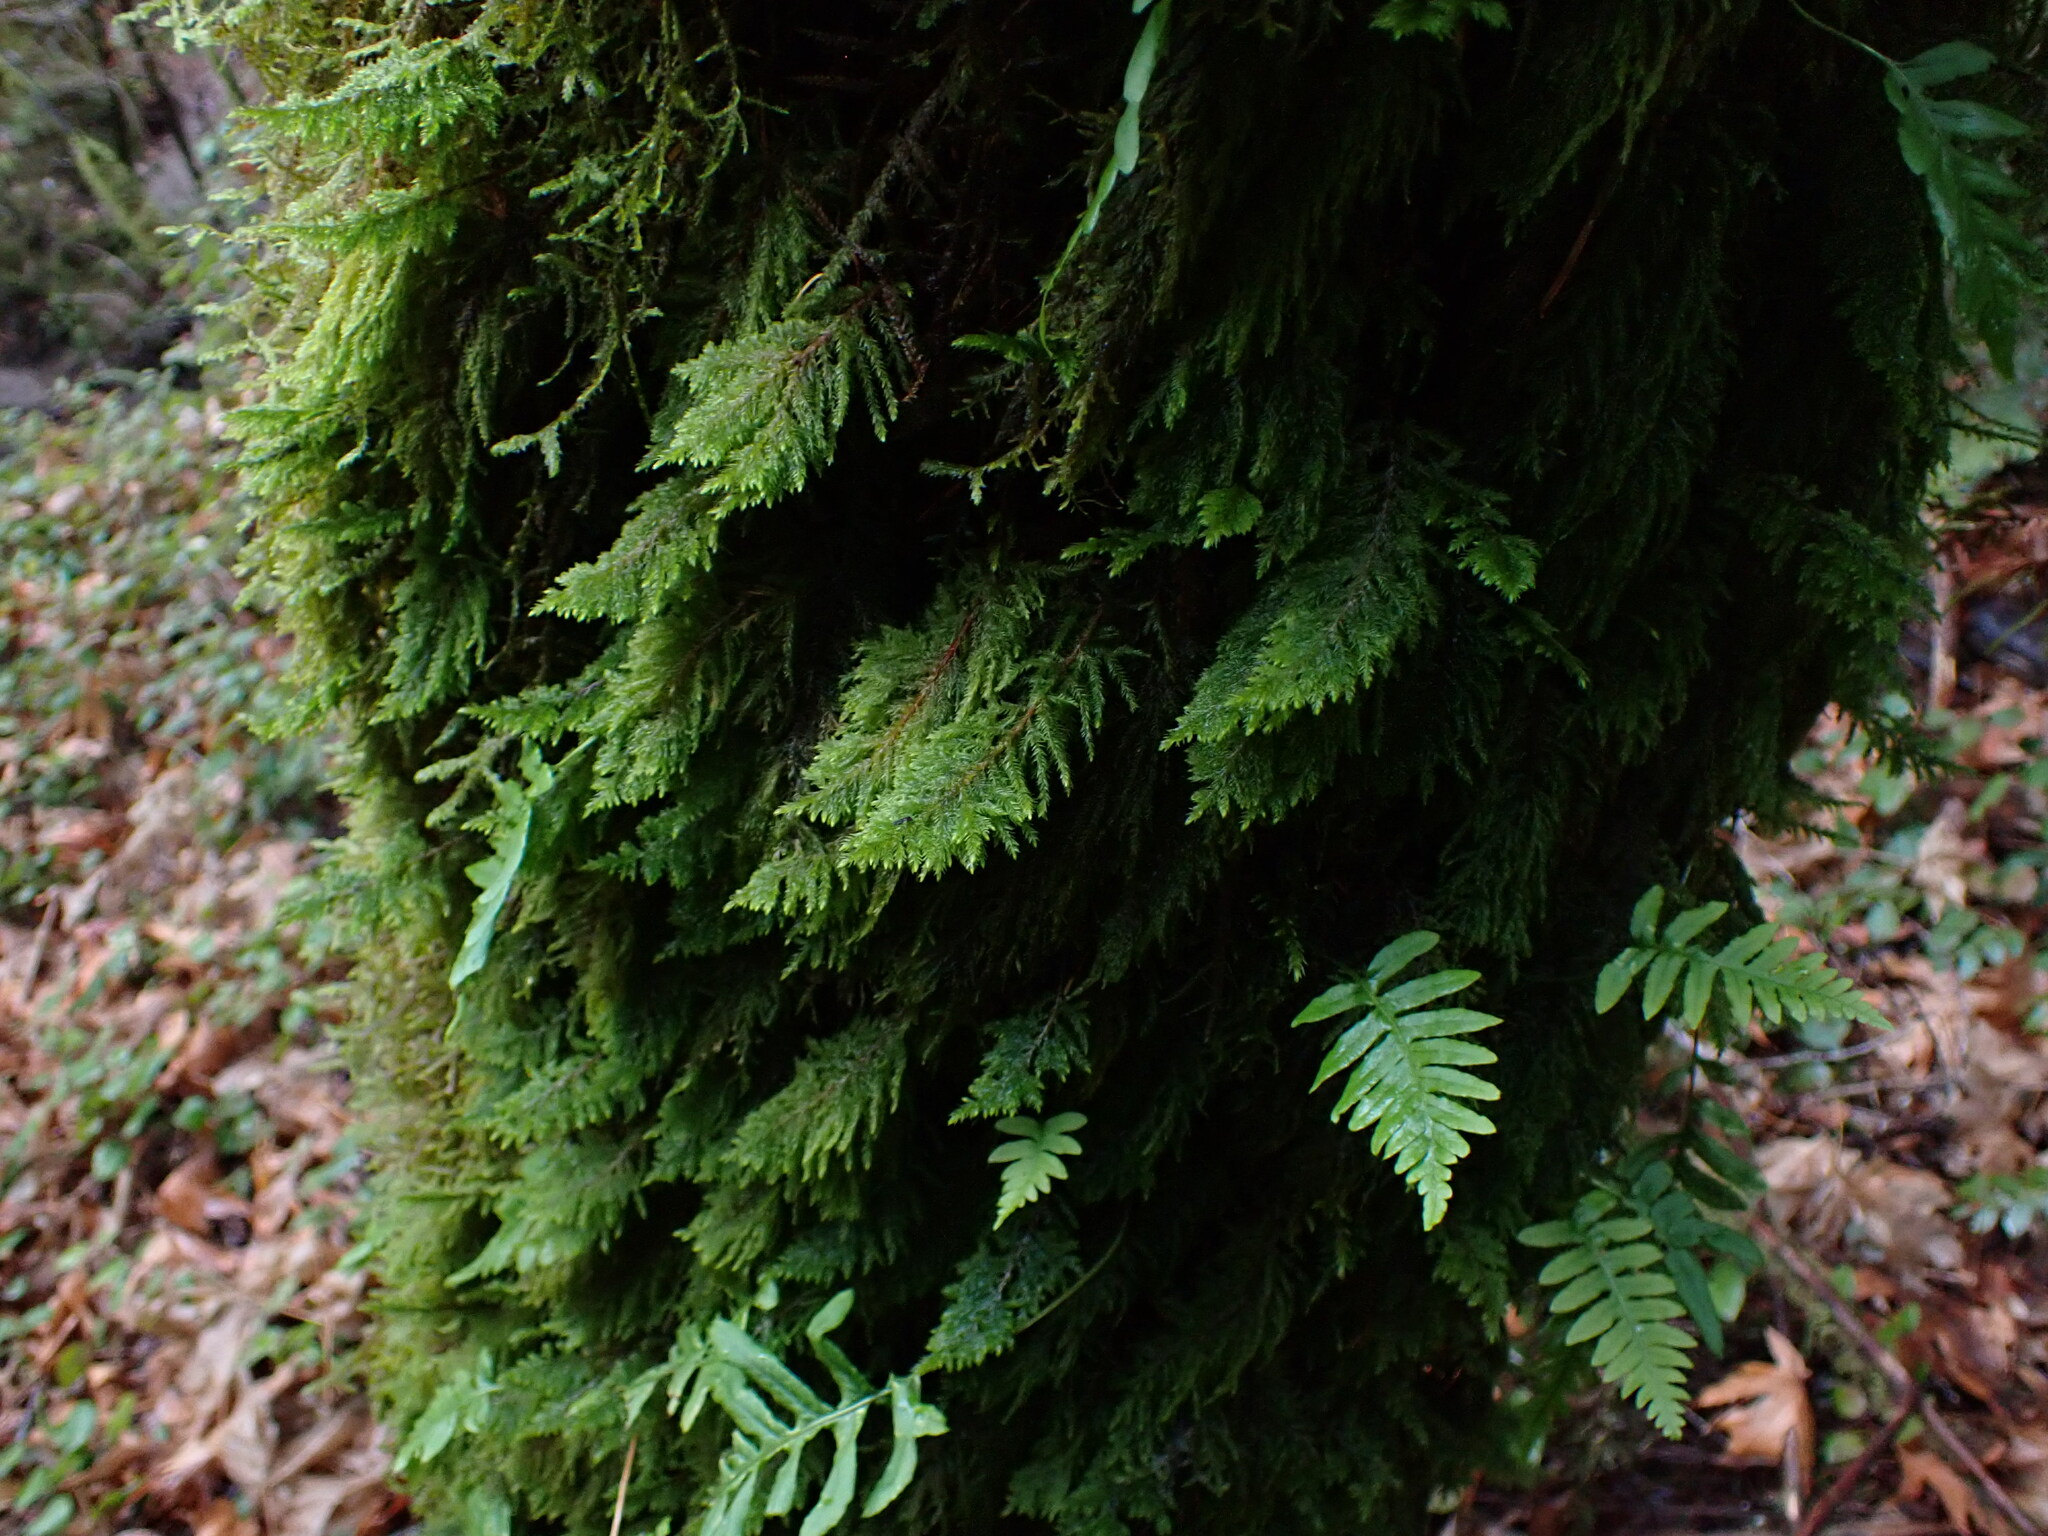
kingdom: Plantae
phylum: Bryophyta
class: Bryopsida
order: Hypnales
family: Cryphaeaceae
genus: Dendroalsia
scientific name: Dendroalsia abietina
